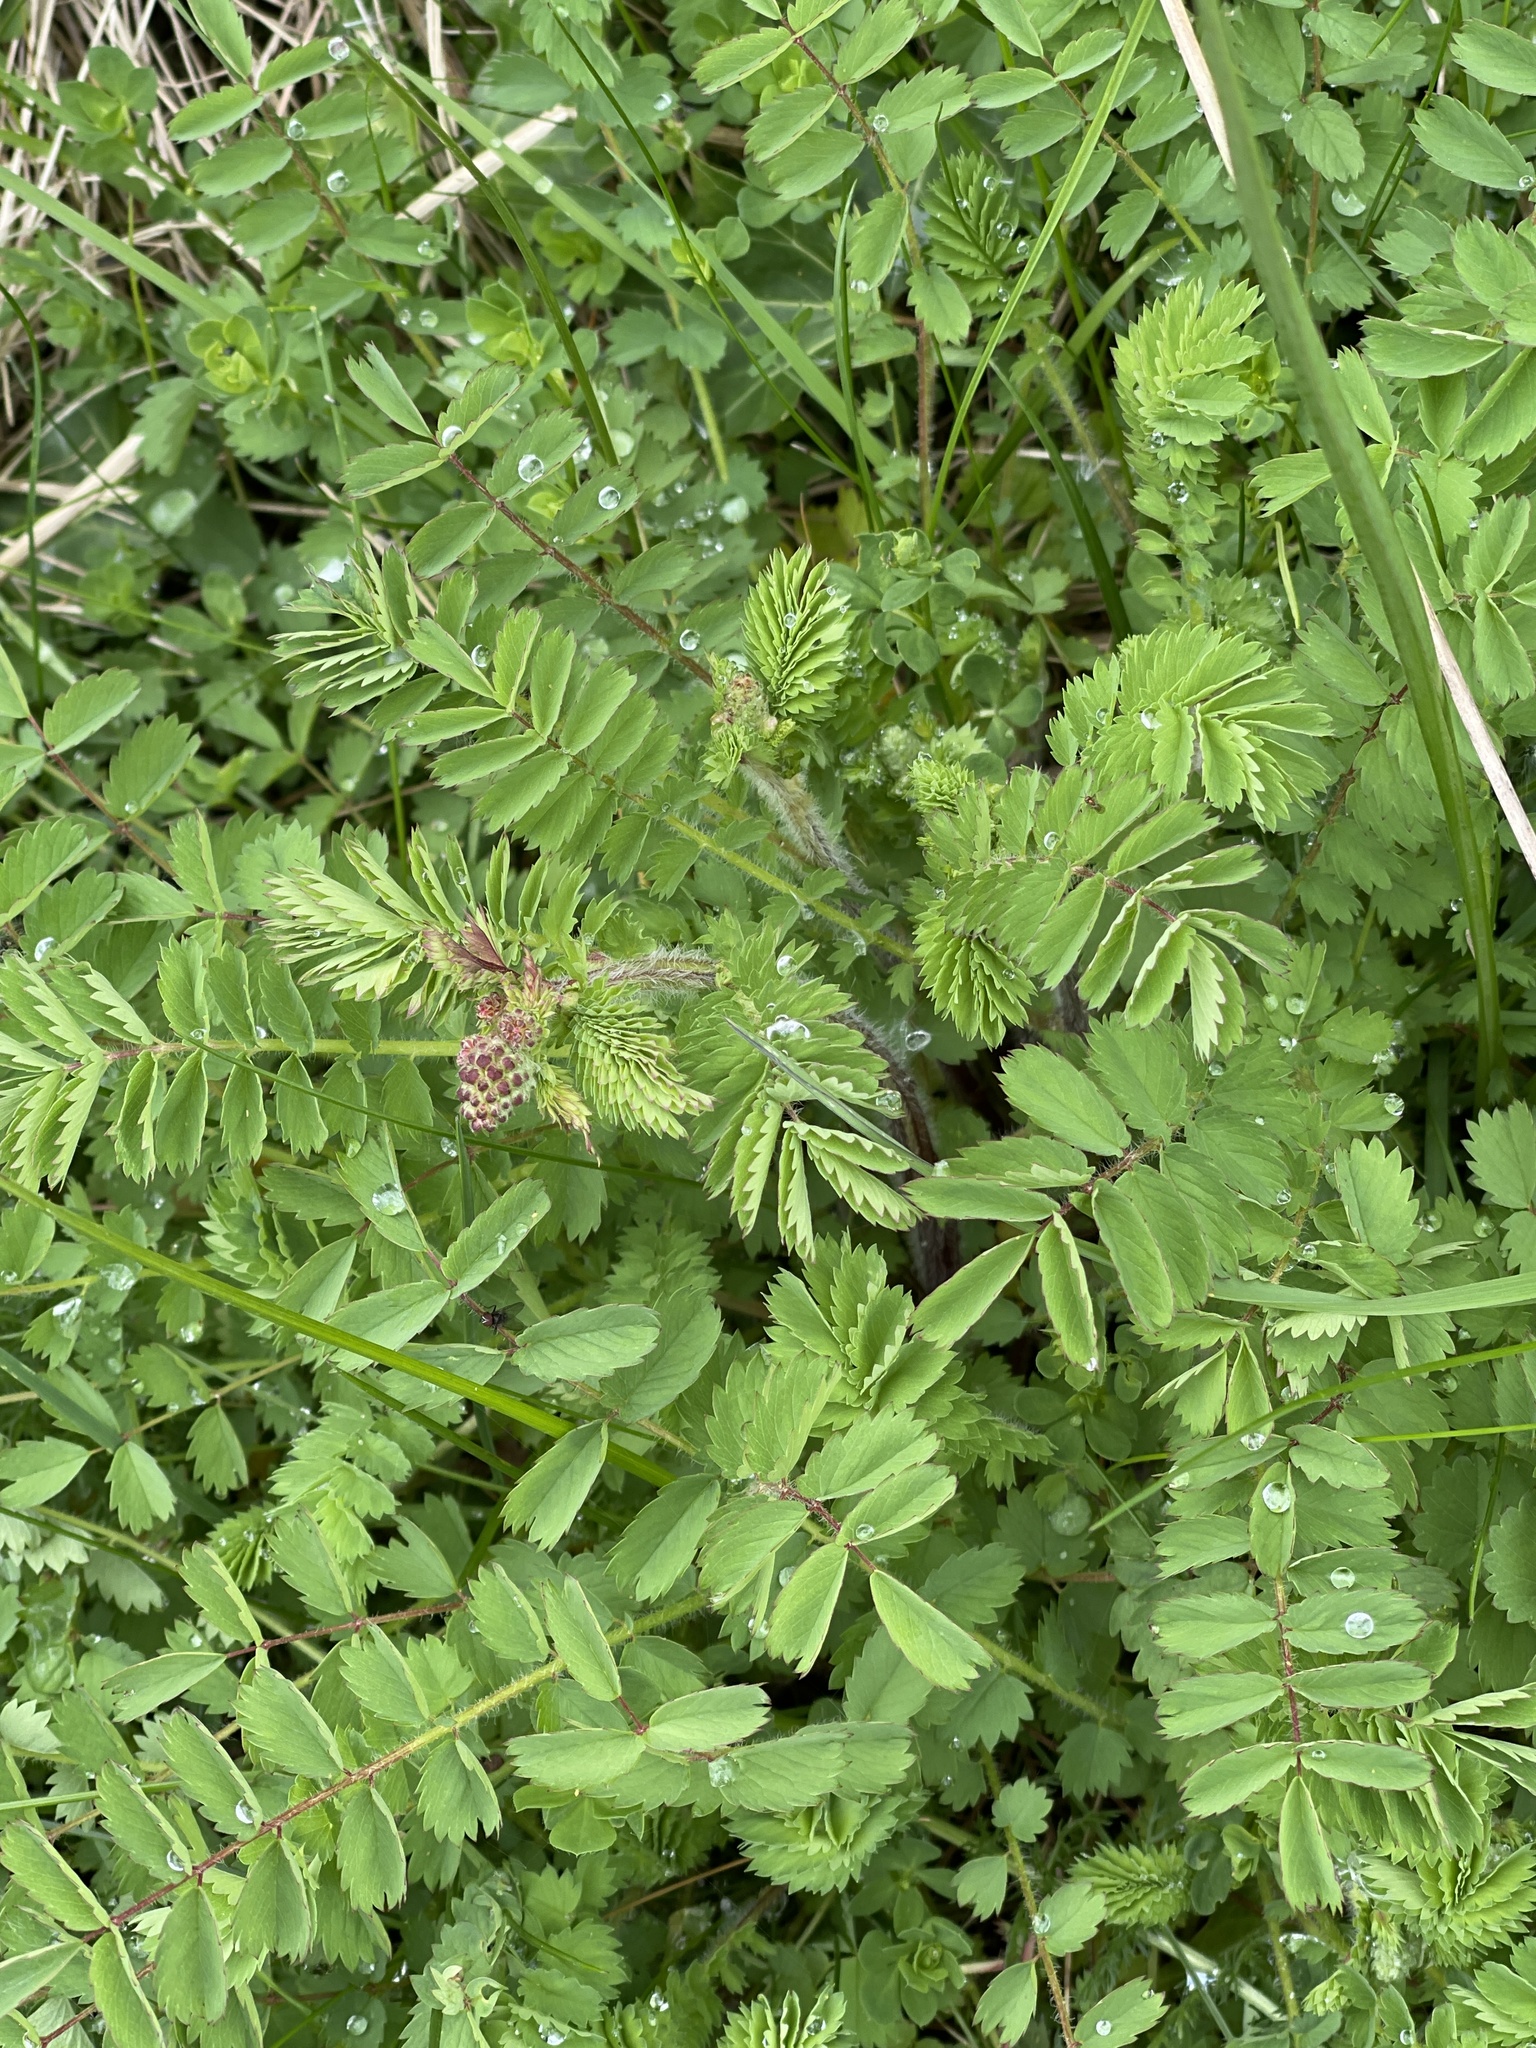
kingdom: Plantae
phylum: Tracheophyta
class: Magnoliopsida
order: Rosales
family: Rosaceae
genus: Poterium
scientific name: Poterium sanguisorba
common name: Salad burnet
